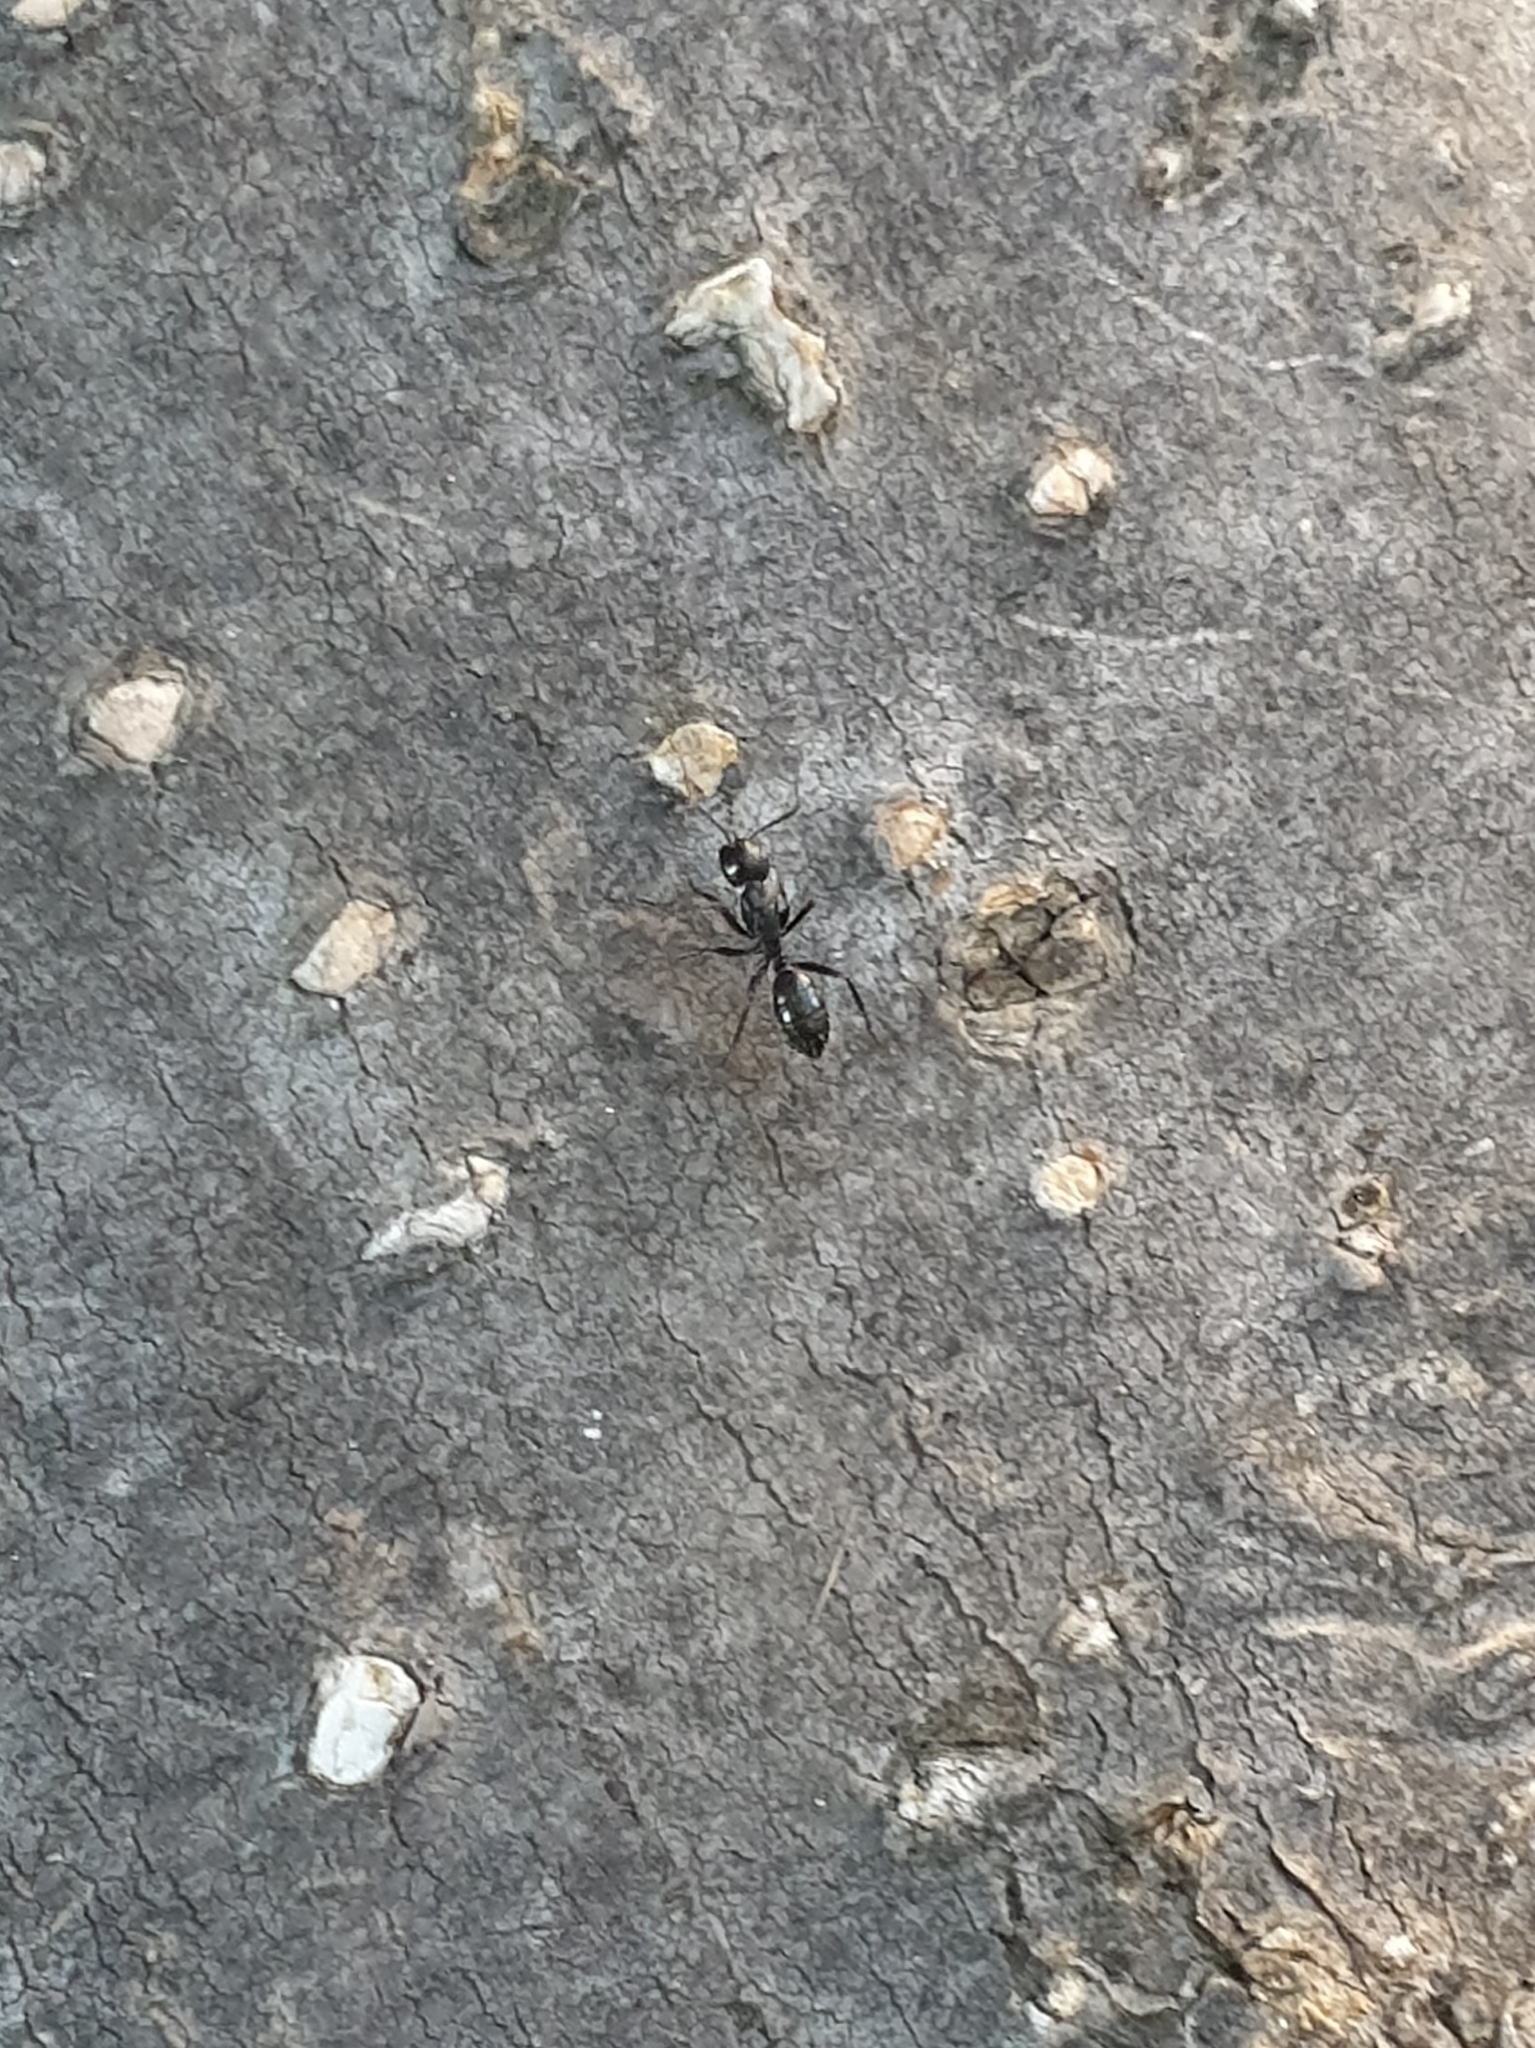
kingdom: Animalia
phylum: Arthropoda
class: Insecta
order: Hymenoptera
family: Formicidae
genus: Camponotus
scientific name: Camponotus nearcticus
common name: Smaller carpenter ant
